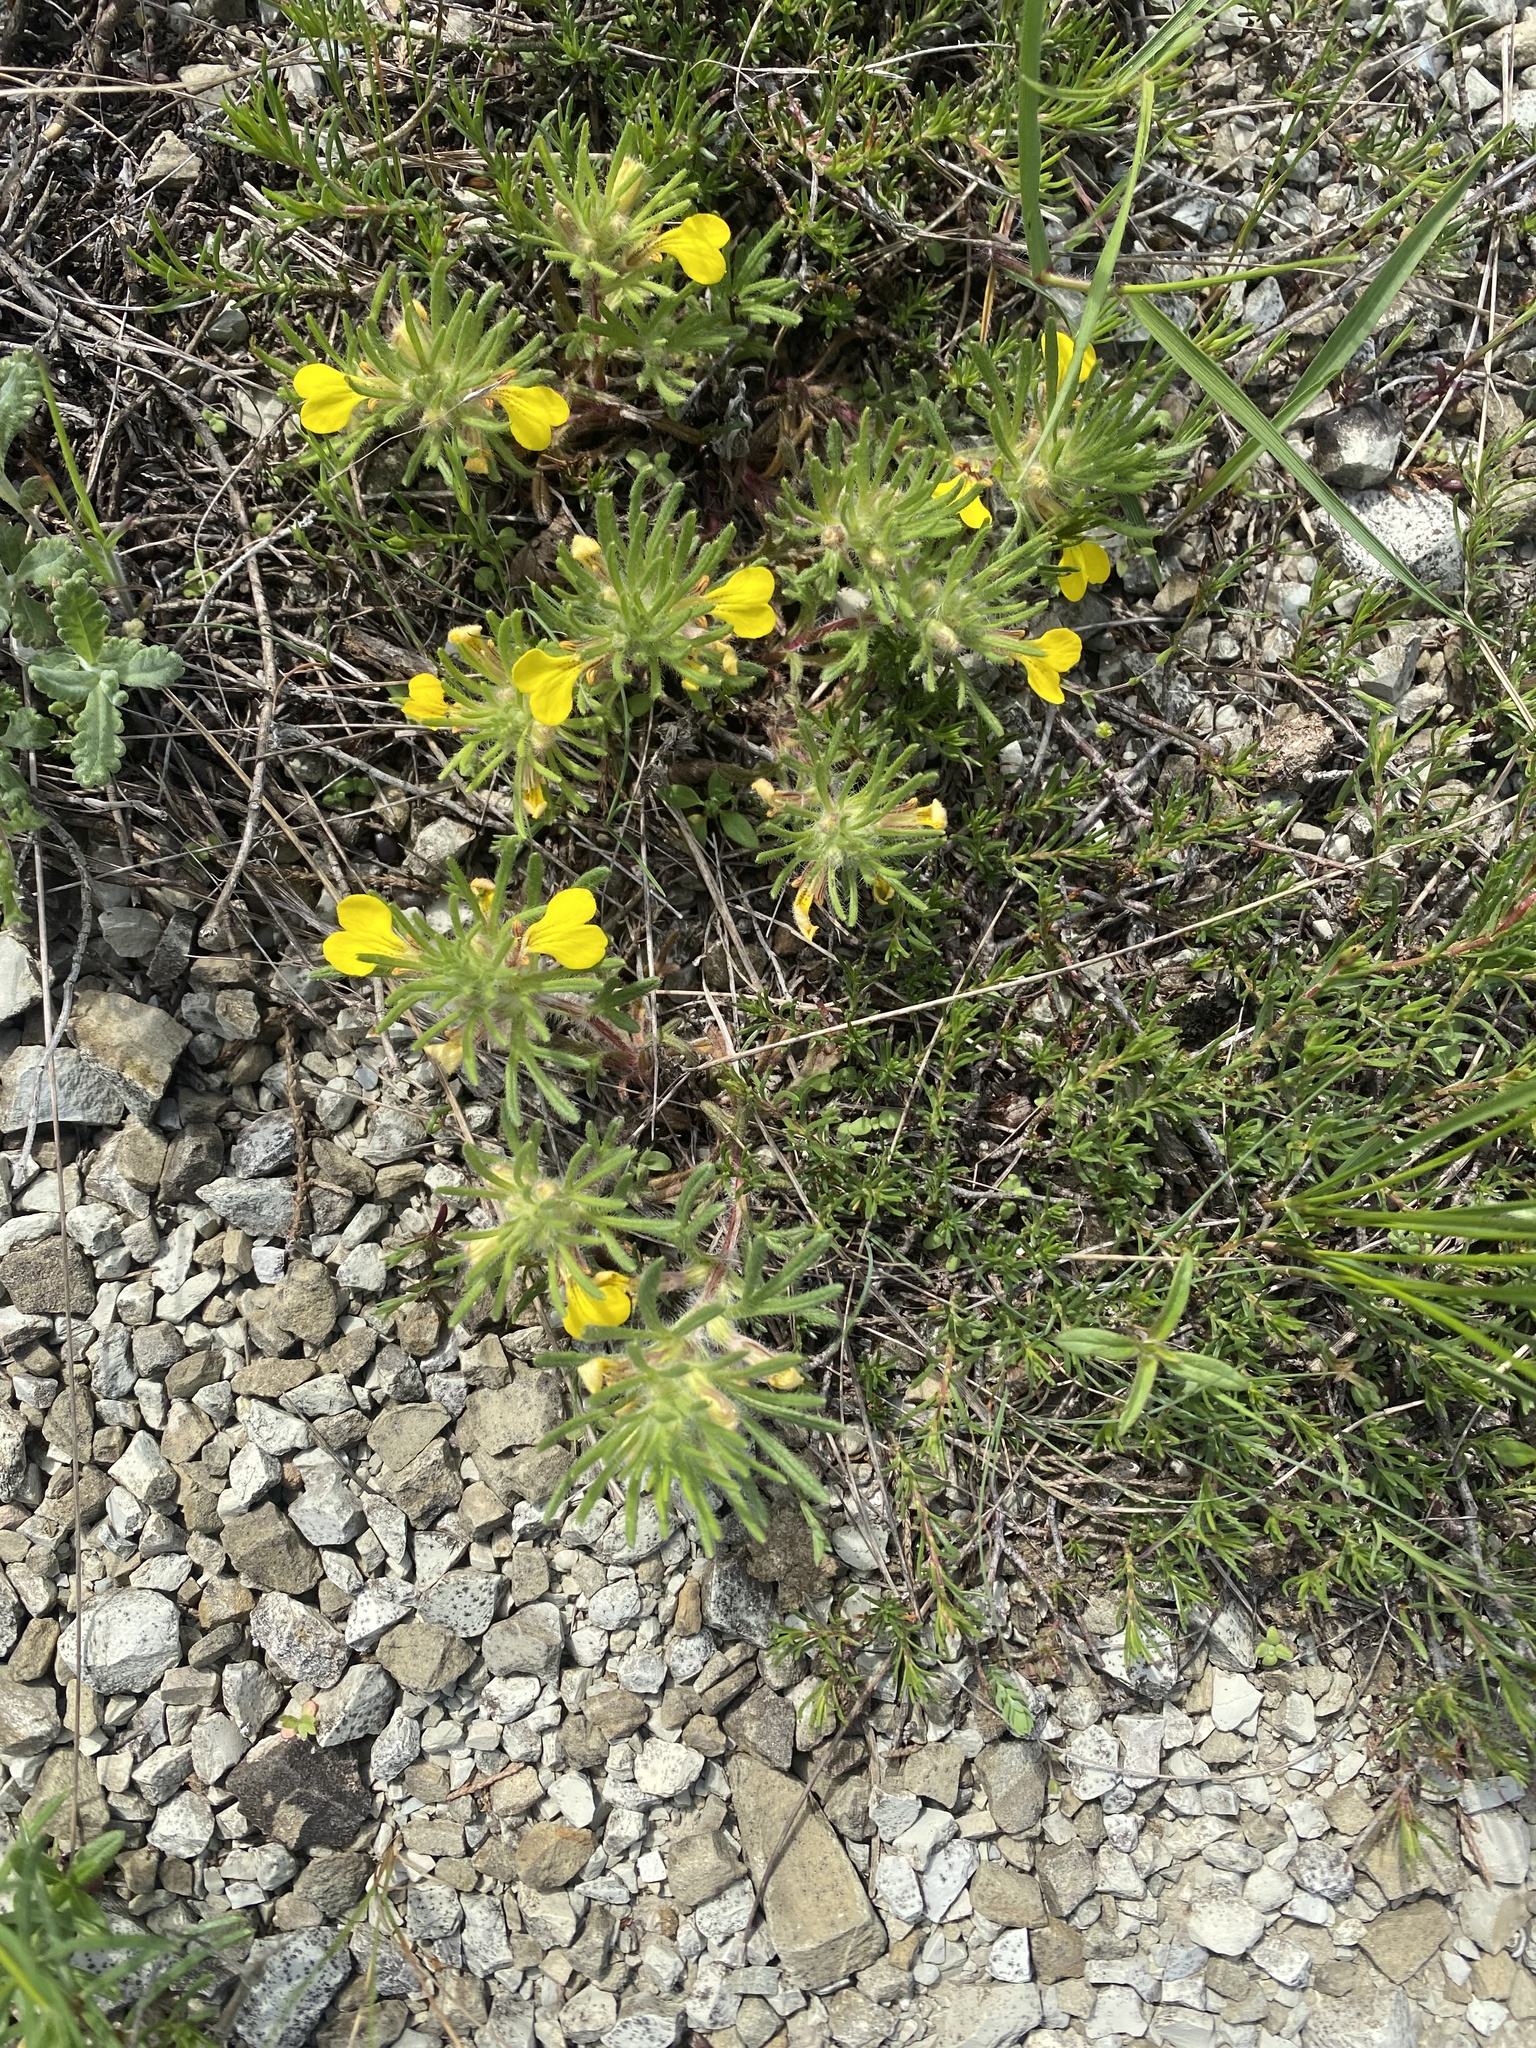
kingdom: Plantae
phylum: Tracheophyta
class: Magnoliopsida
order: Lamiales
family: Lamiaceae
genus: Ajuga
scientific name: Ajuga chamaepitys
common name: Ground-pine
